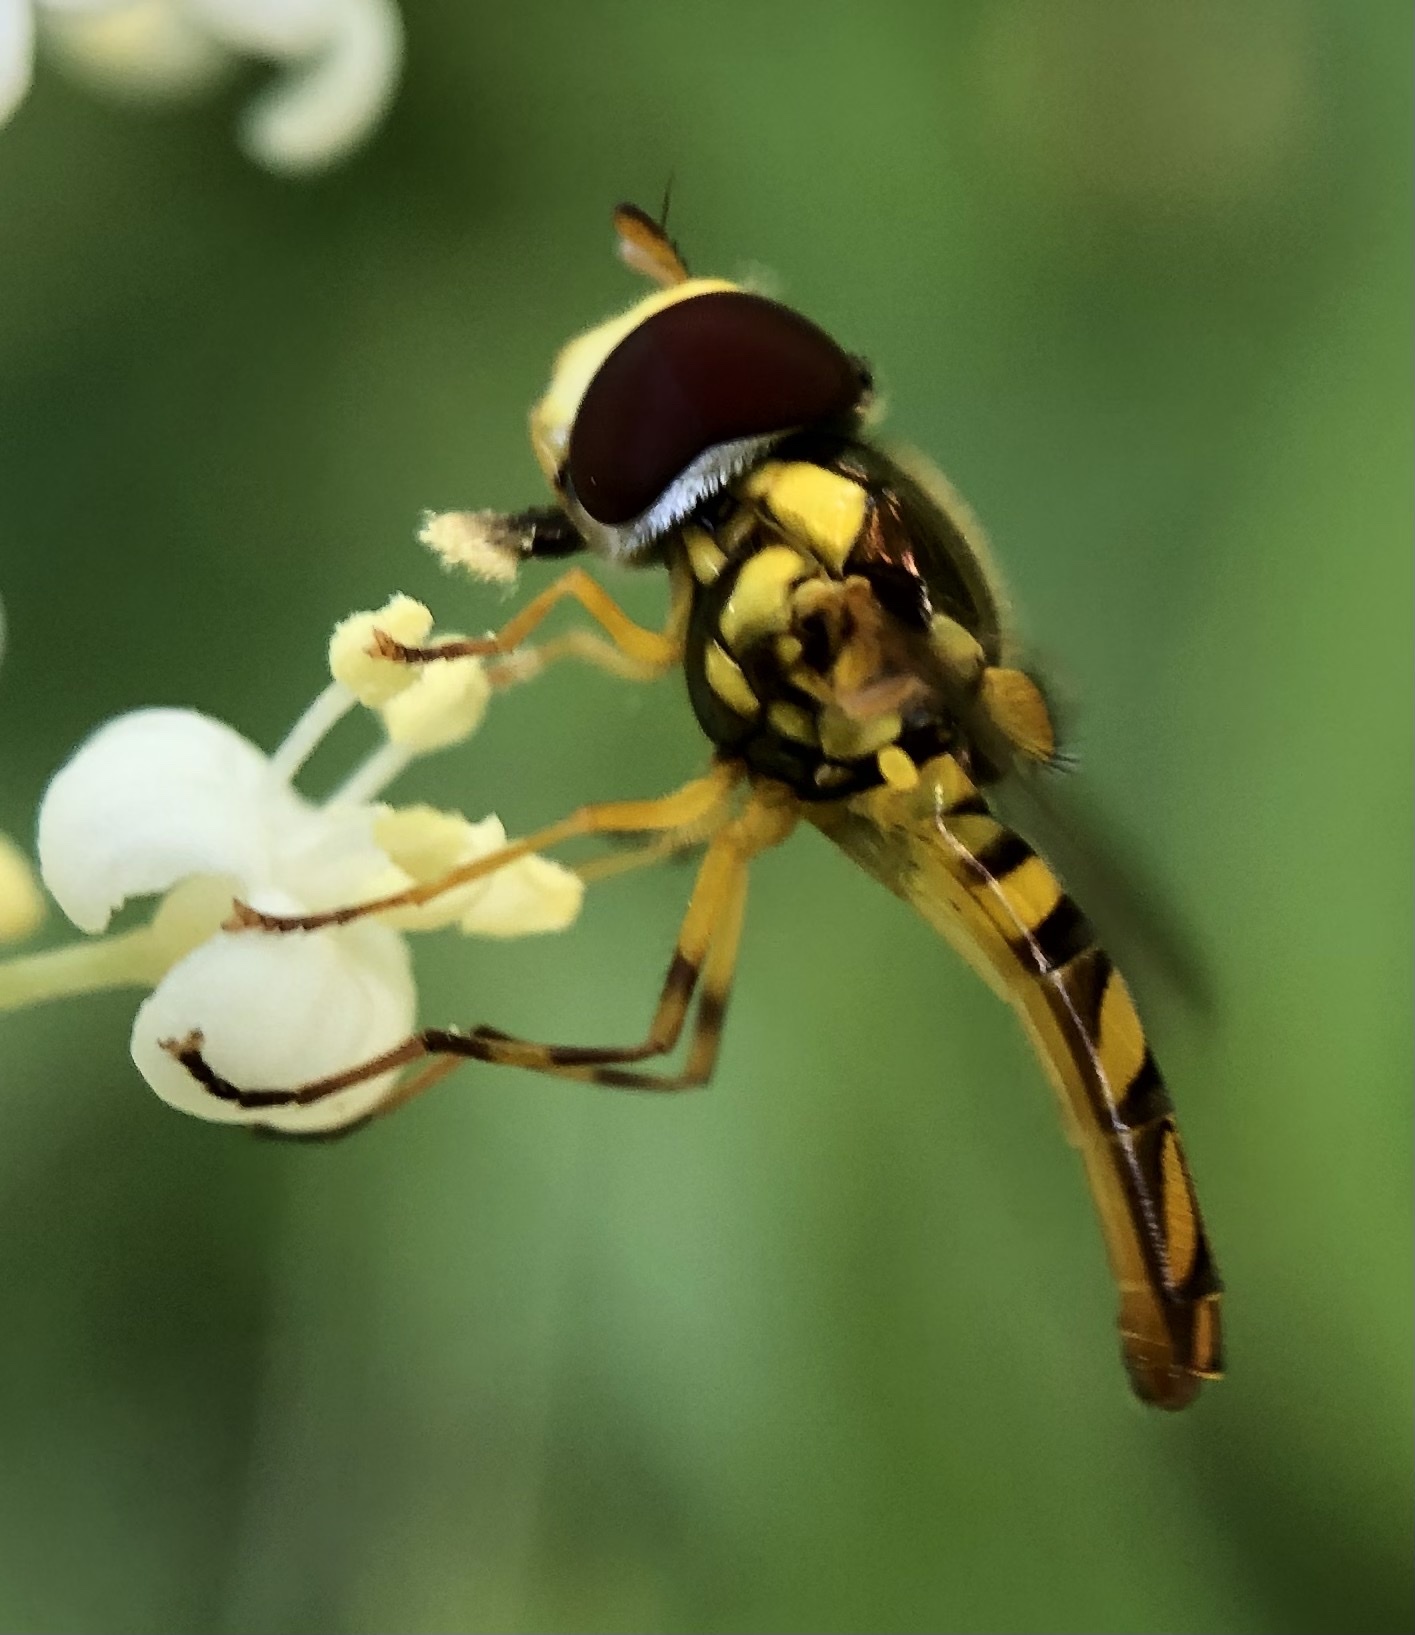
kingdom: Animalia
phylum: Arthropoda
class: Insecta
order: Diptera
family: Syrphidae
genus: Allograpta
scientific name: Allograpta obliqua
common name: Common oblique syrphid
